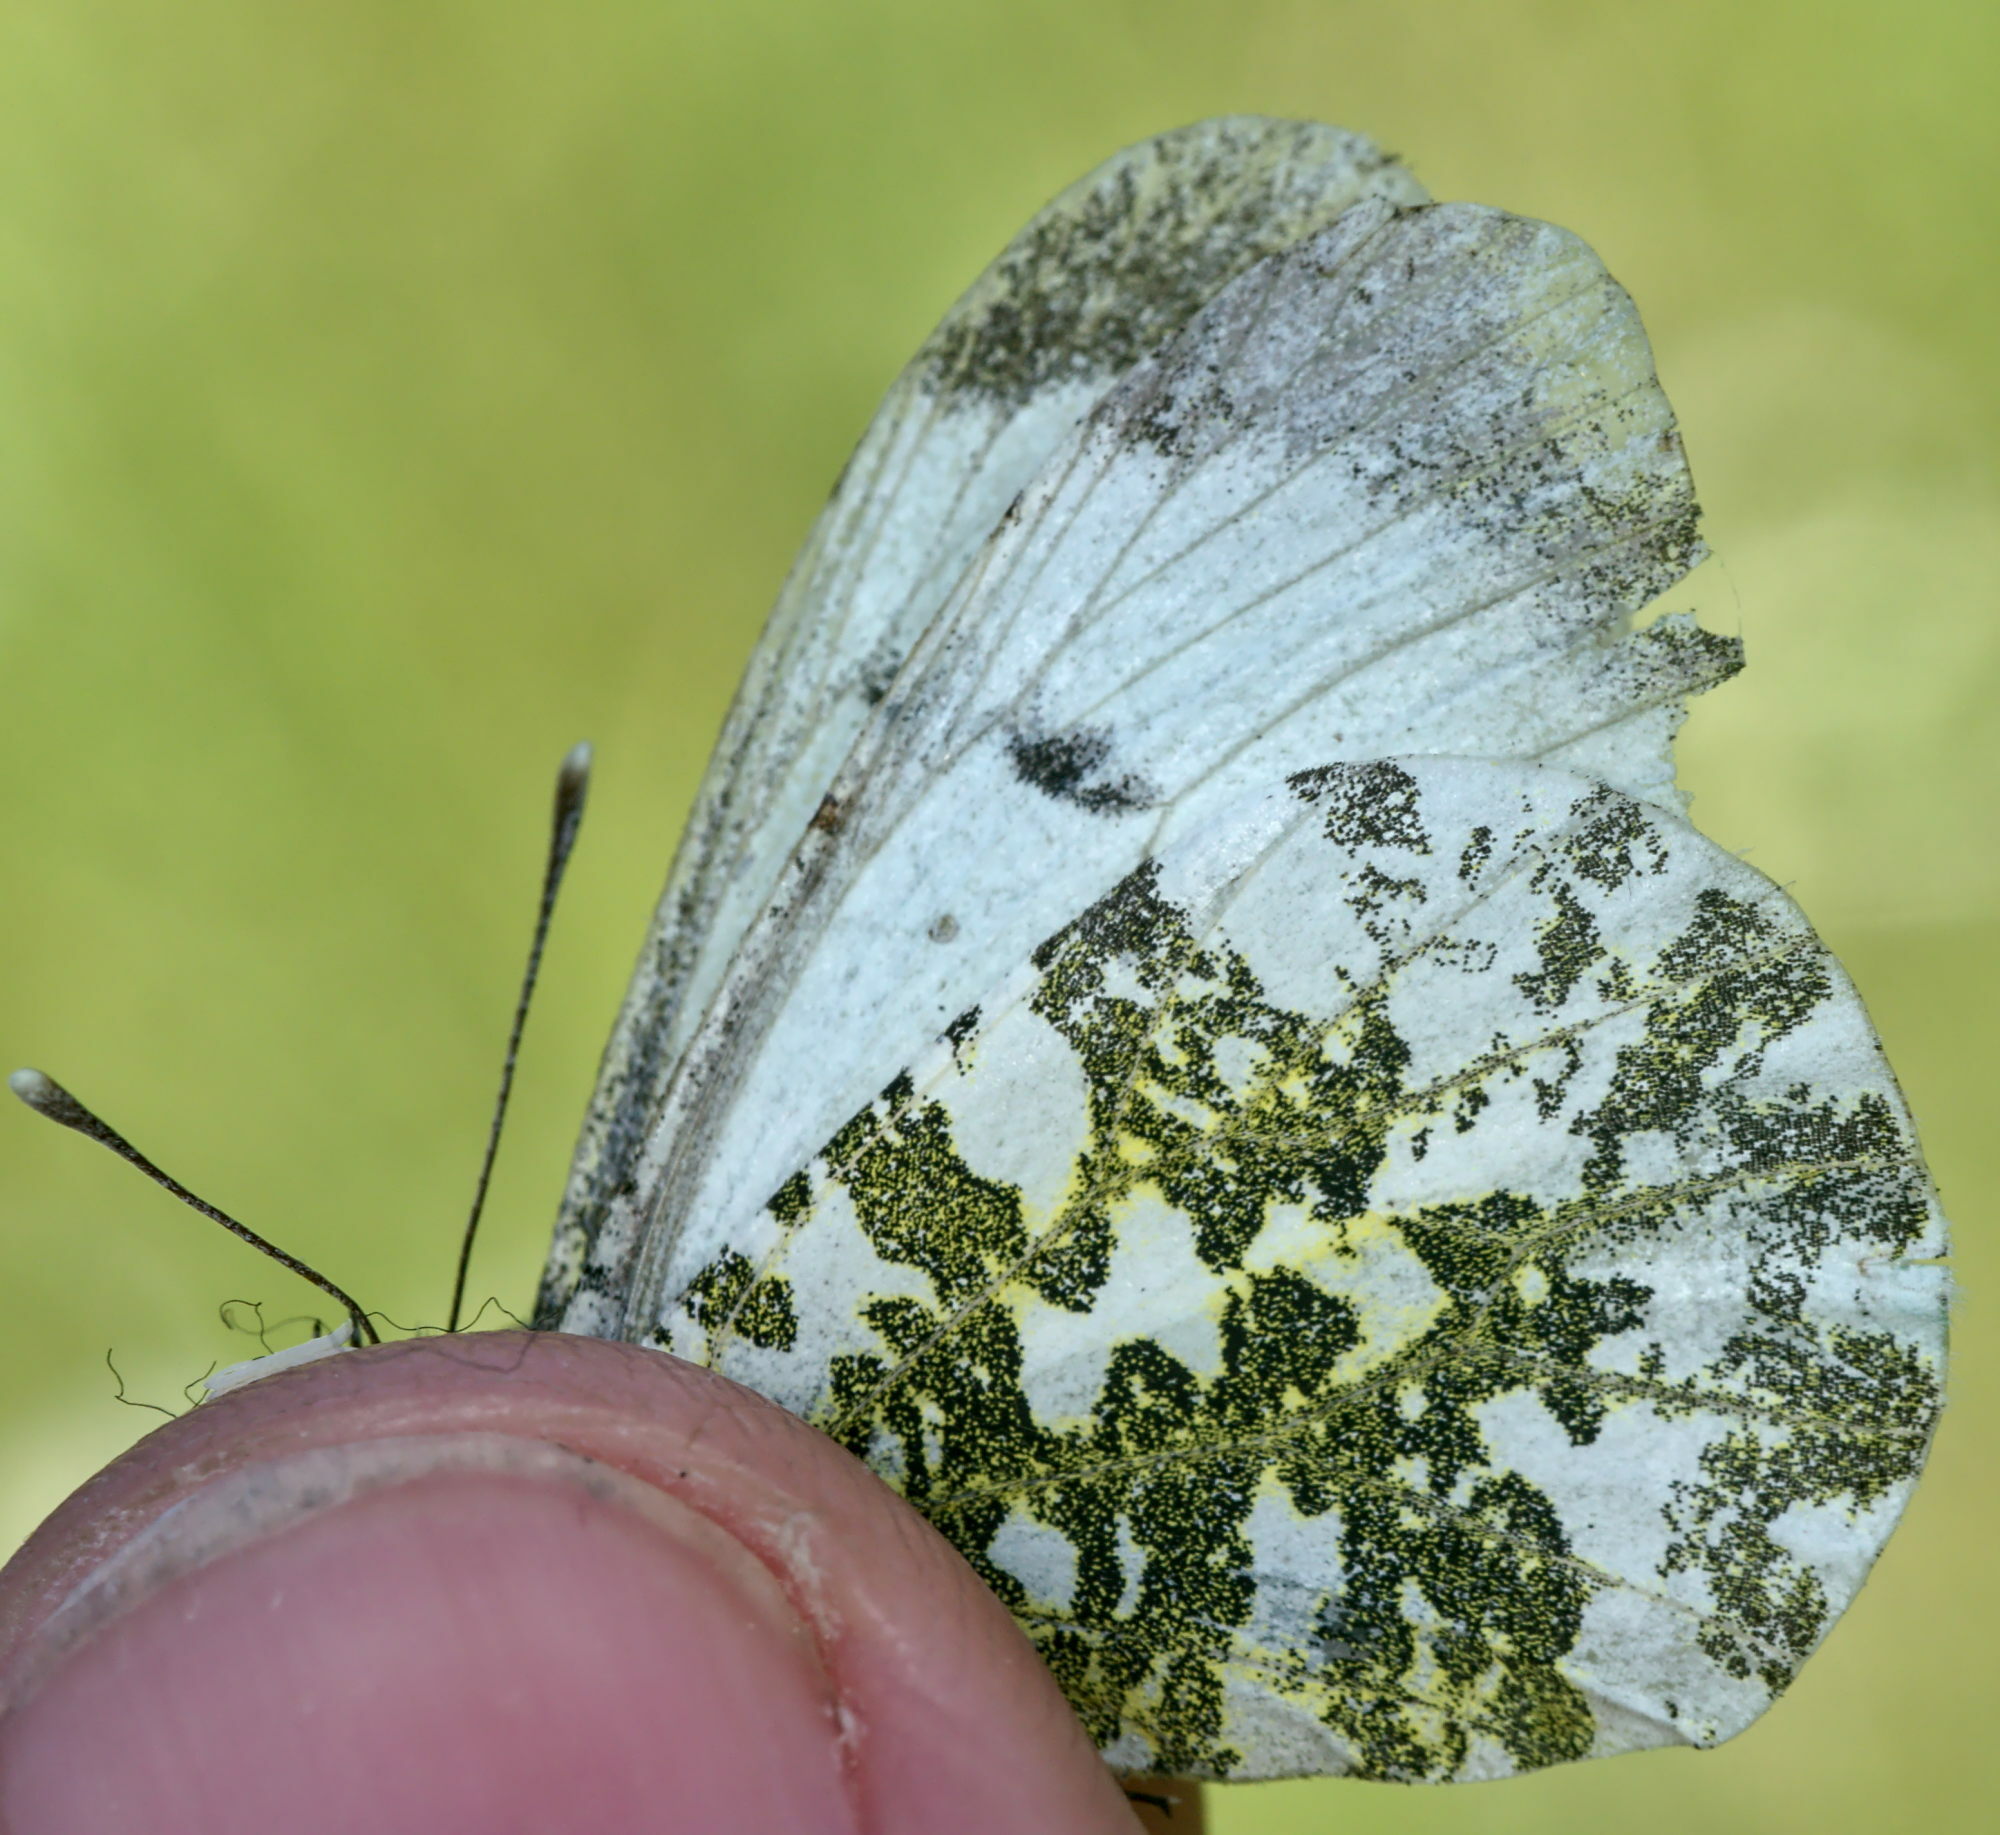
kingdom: Animalia
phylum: Arthropoda
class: Insecta
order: Lepidoptera
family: Pieridae
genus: Anthocharis
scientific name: Anthocharis cardamines
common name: Orange-tip
